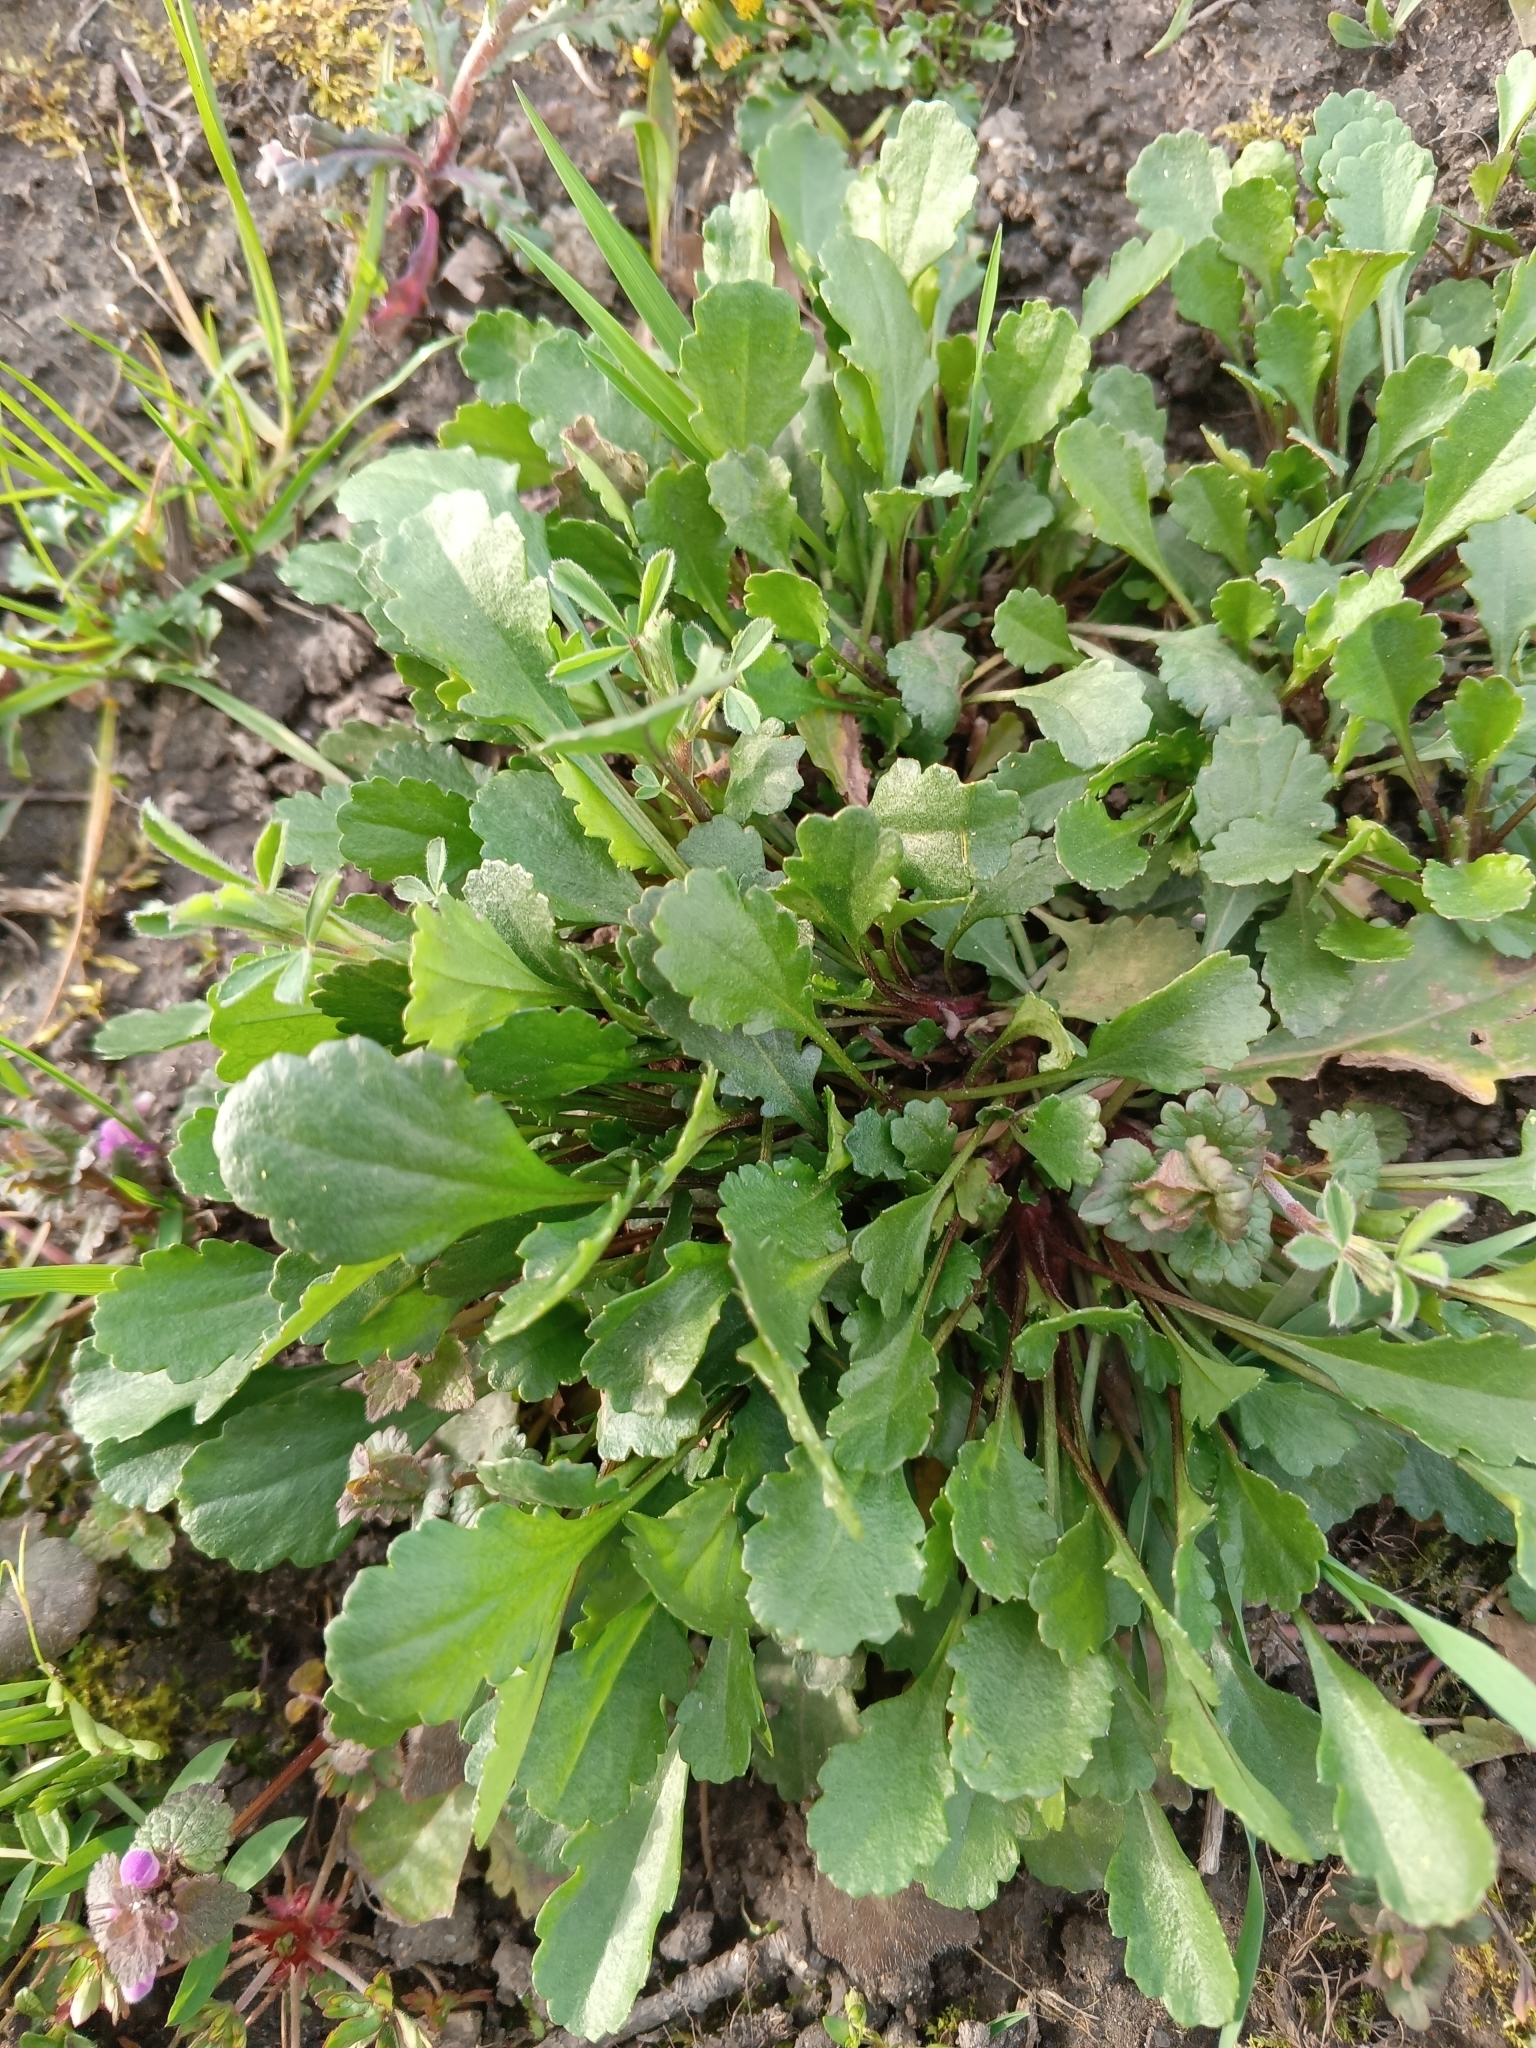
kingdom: Plantae
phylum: Tracheophyta
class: Magnoliopsida
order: Asterales
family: Asteraceae
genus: Leucanthemum
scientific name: Leucanthemum vulgare
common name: Oxeye daisy
